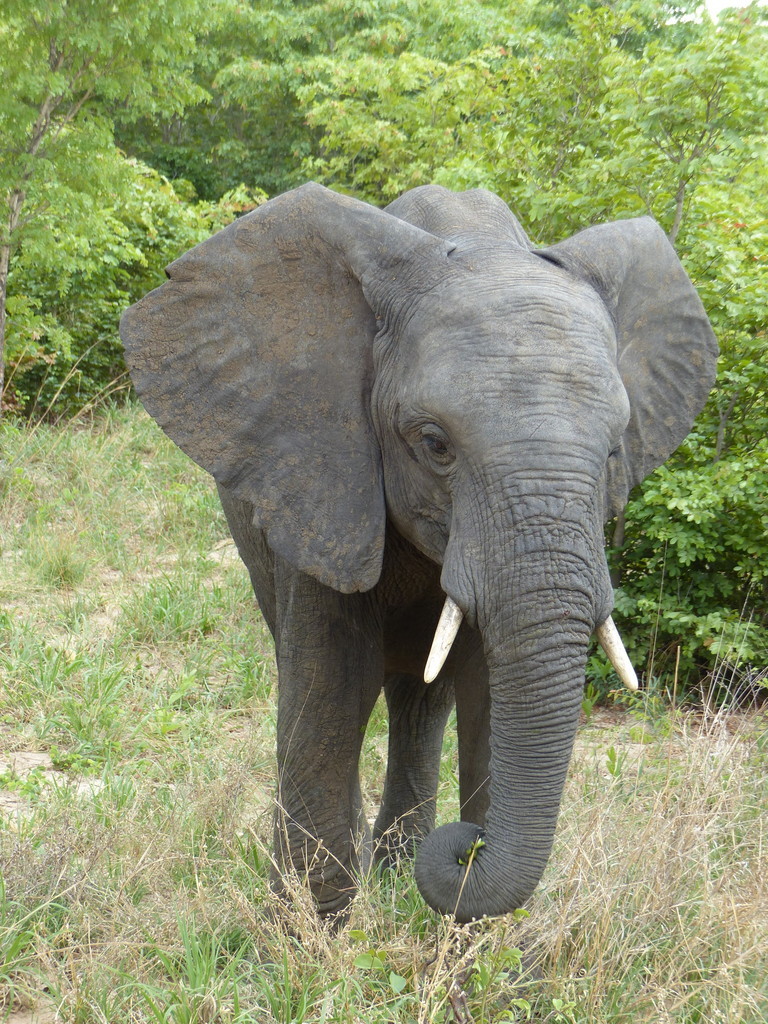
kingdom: Animalia
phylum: Chordata
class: Mammalia
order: Proboscidea
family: Elephantidae
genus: Loxodonta
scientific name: Loxodonta africana
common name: African elephant
